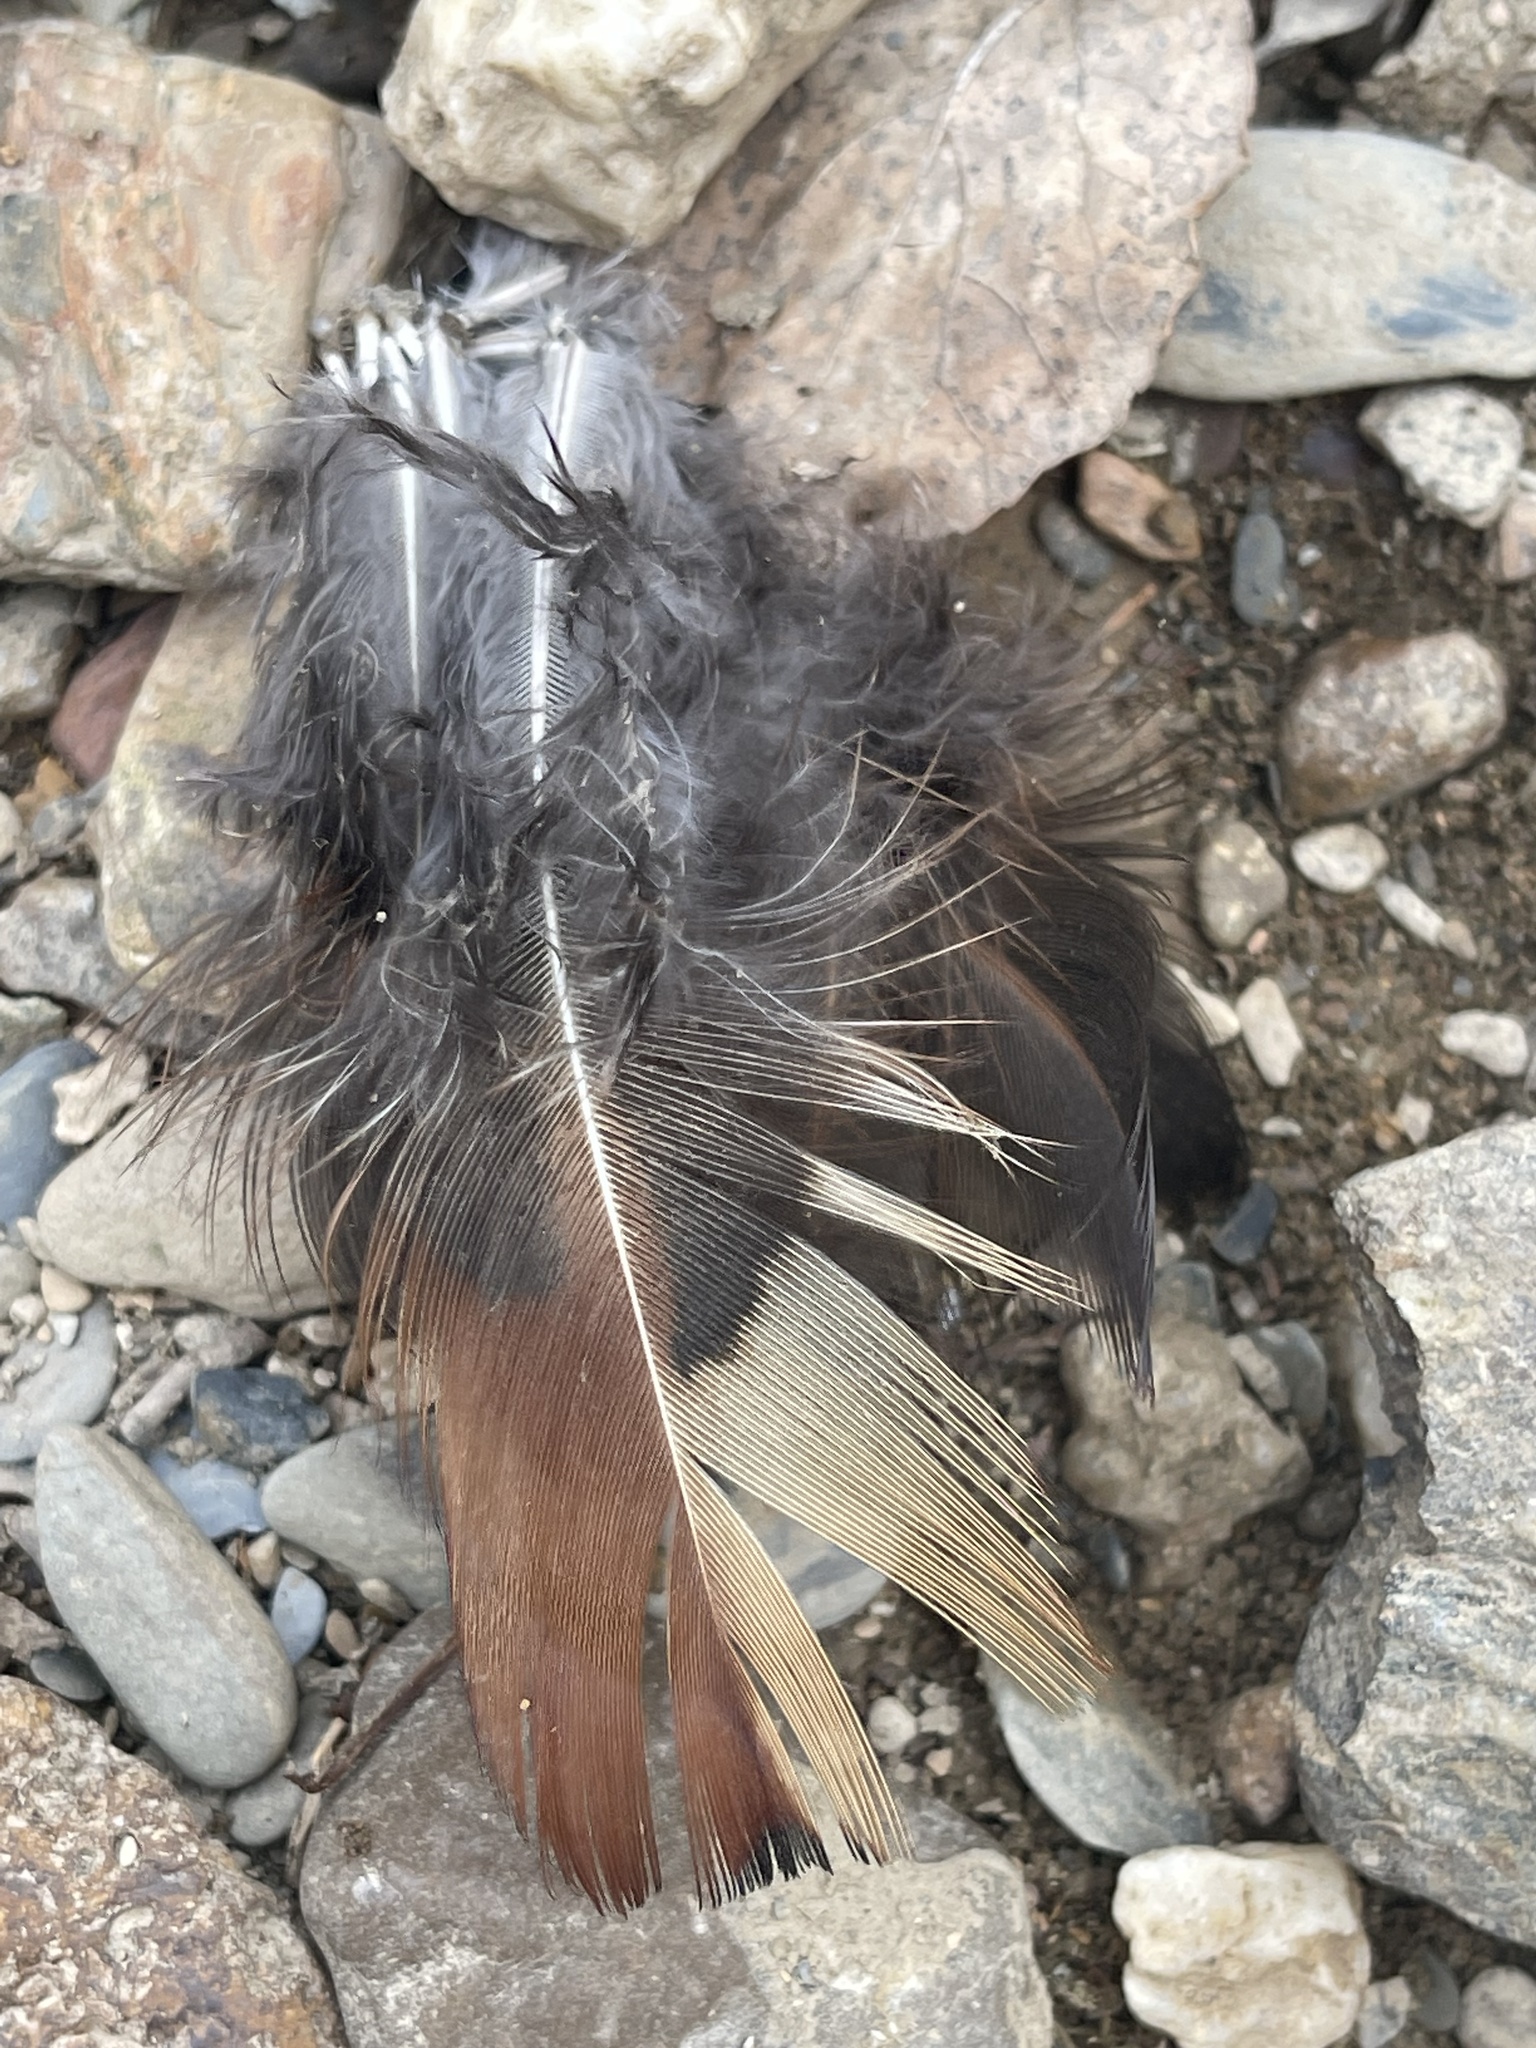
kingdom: Animalia
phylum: Chordata
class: Aves
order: Galliformes
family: Phasianidae
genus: Phasianus
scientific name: Phasianus colchicus
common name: Common pheasant
